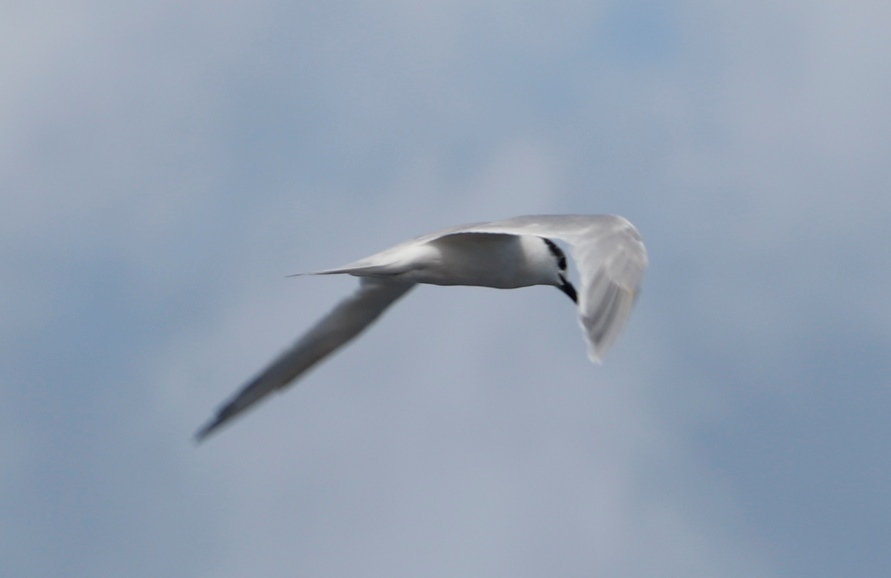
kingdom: Animalia
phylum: Chordata
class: Aves
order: Charadriiformes
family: Laridae
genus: Thalasseus
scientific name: Thalasseus sandvicensis
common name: Sandwich tern
